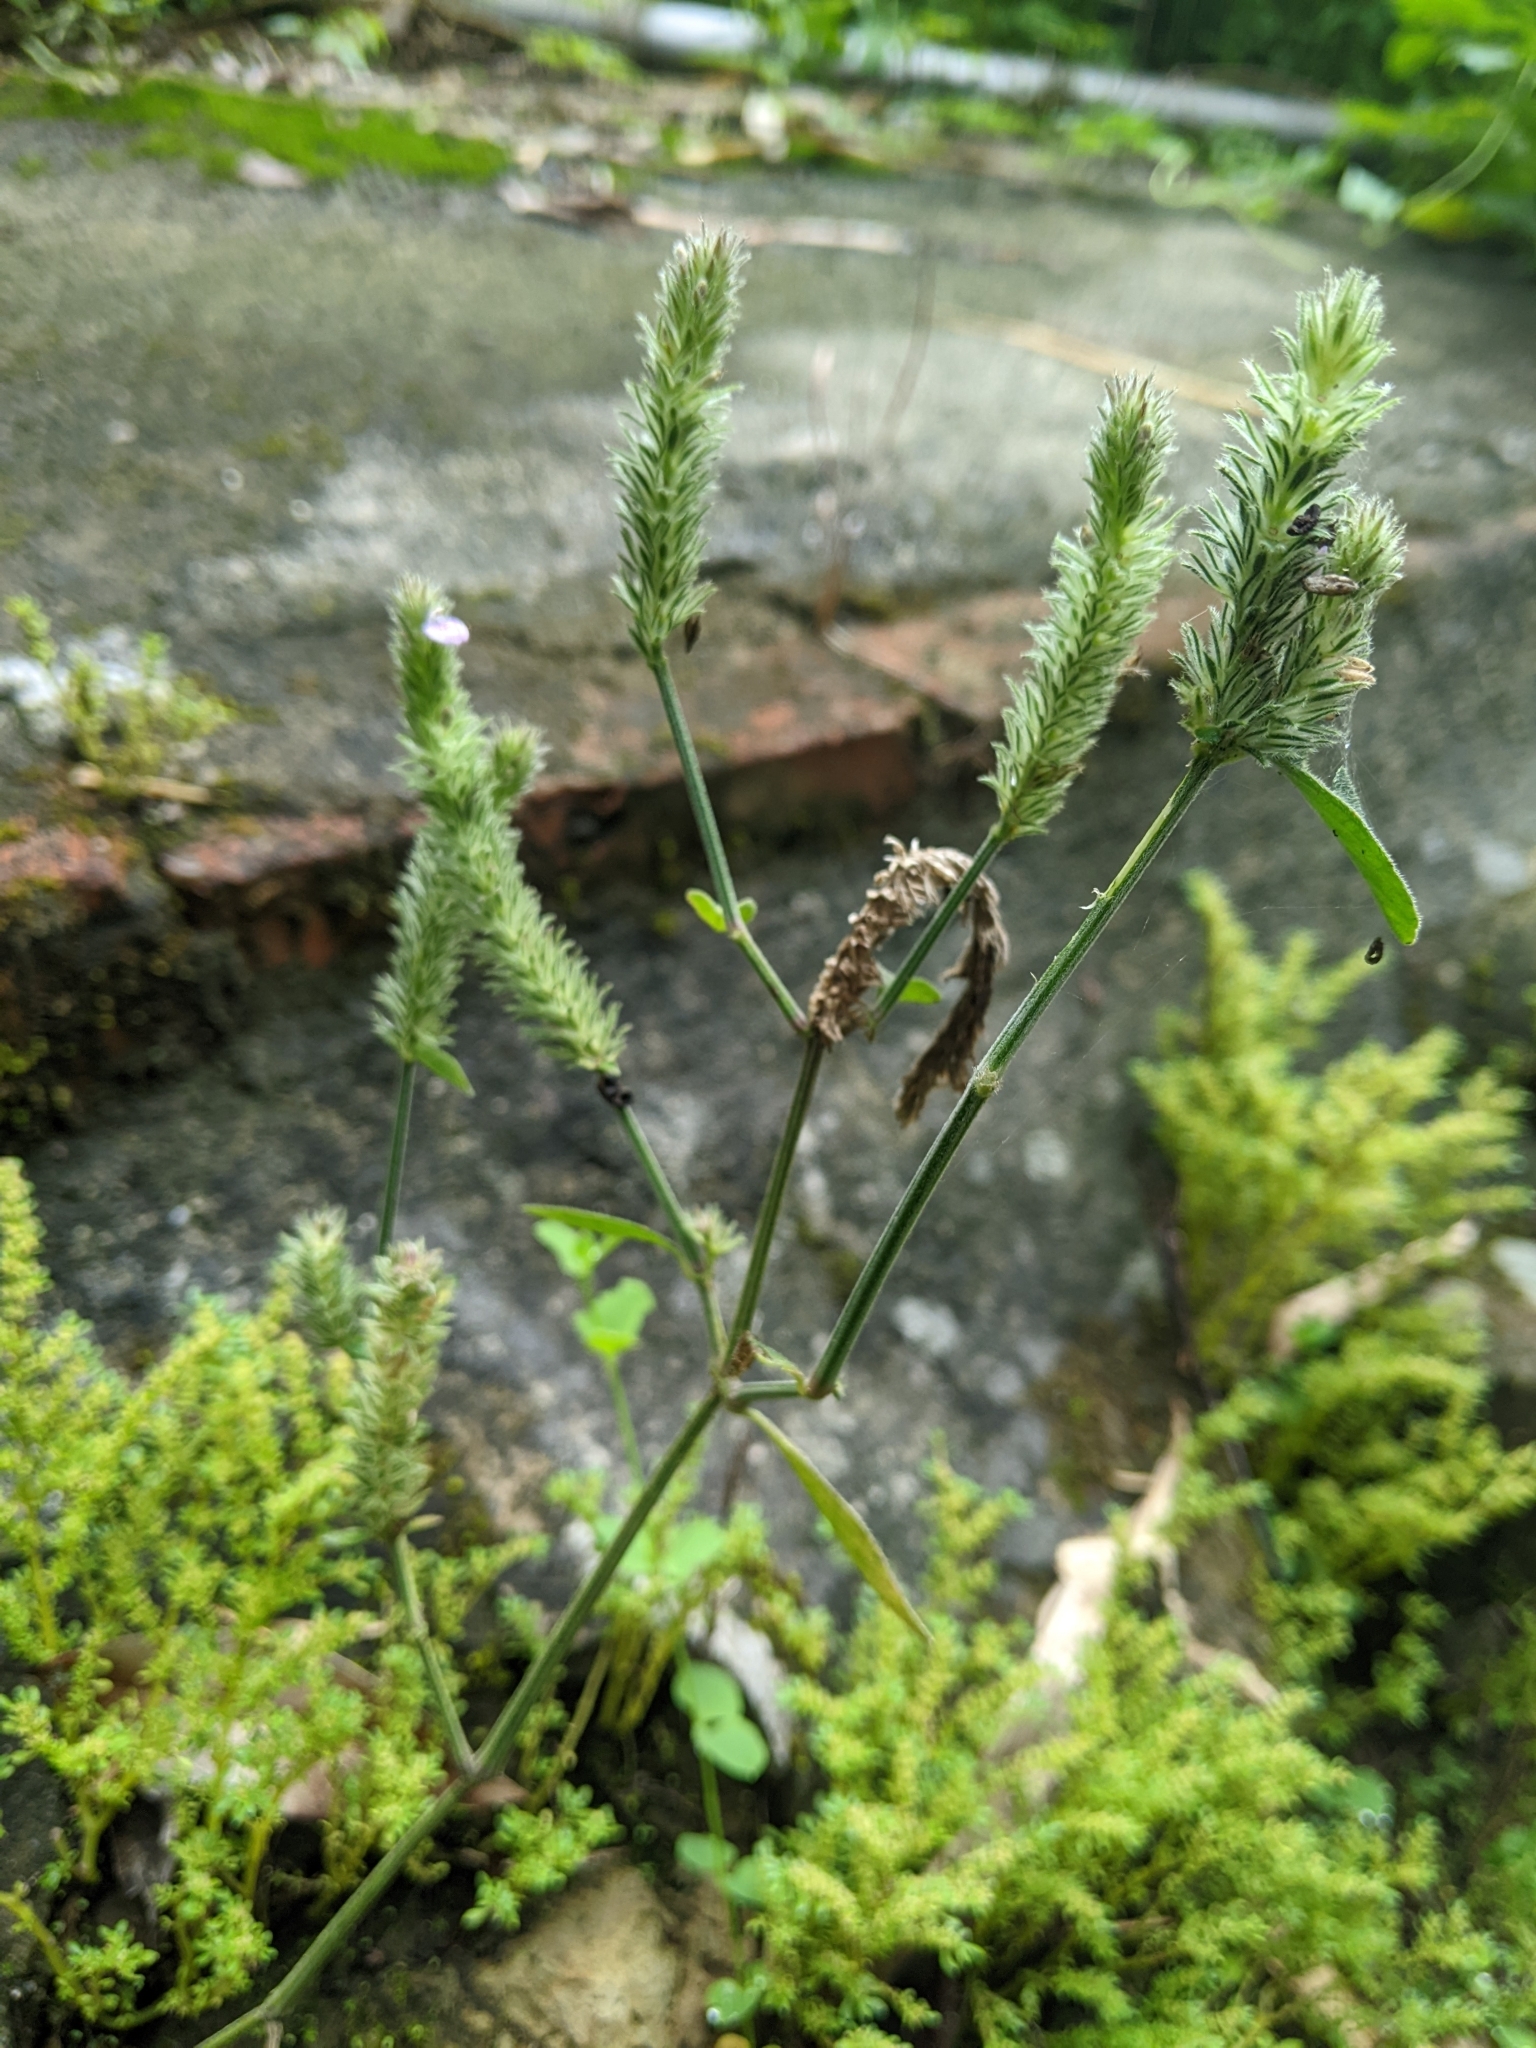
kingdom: Plantae
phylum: Tracheophyta
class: Magnoliopsida
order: Lamiales
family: Acanthaceae
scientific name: Acanthaceae
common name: Acanthaceae
